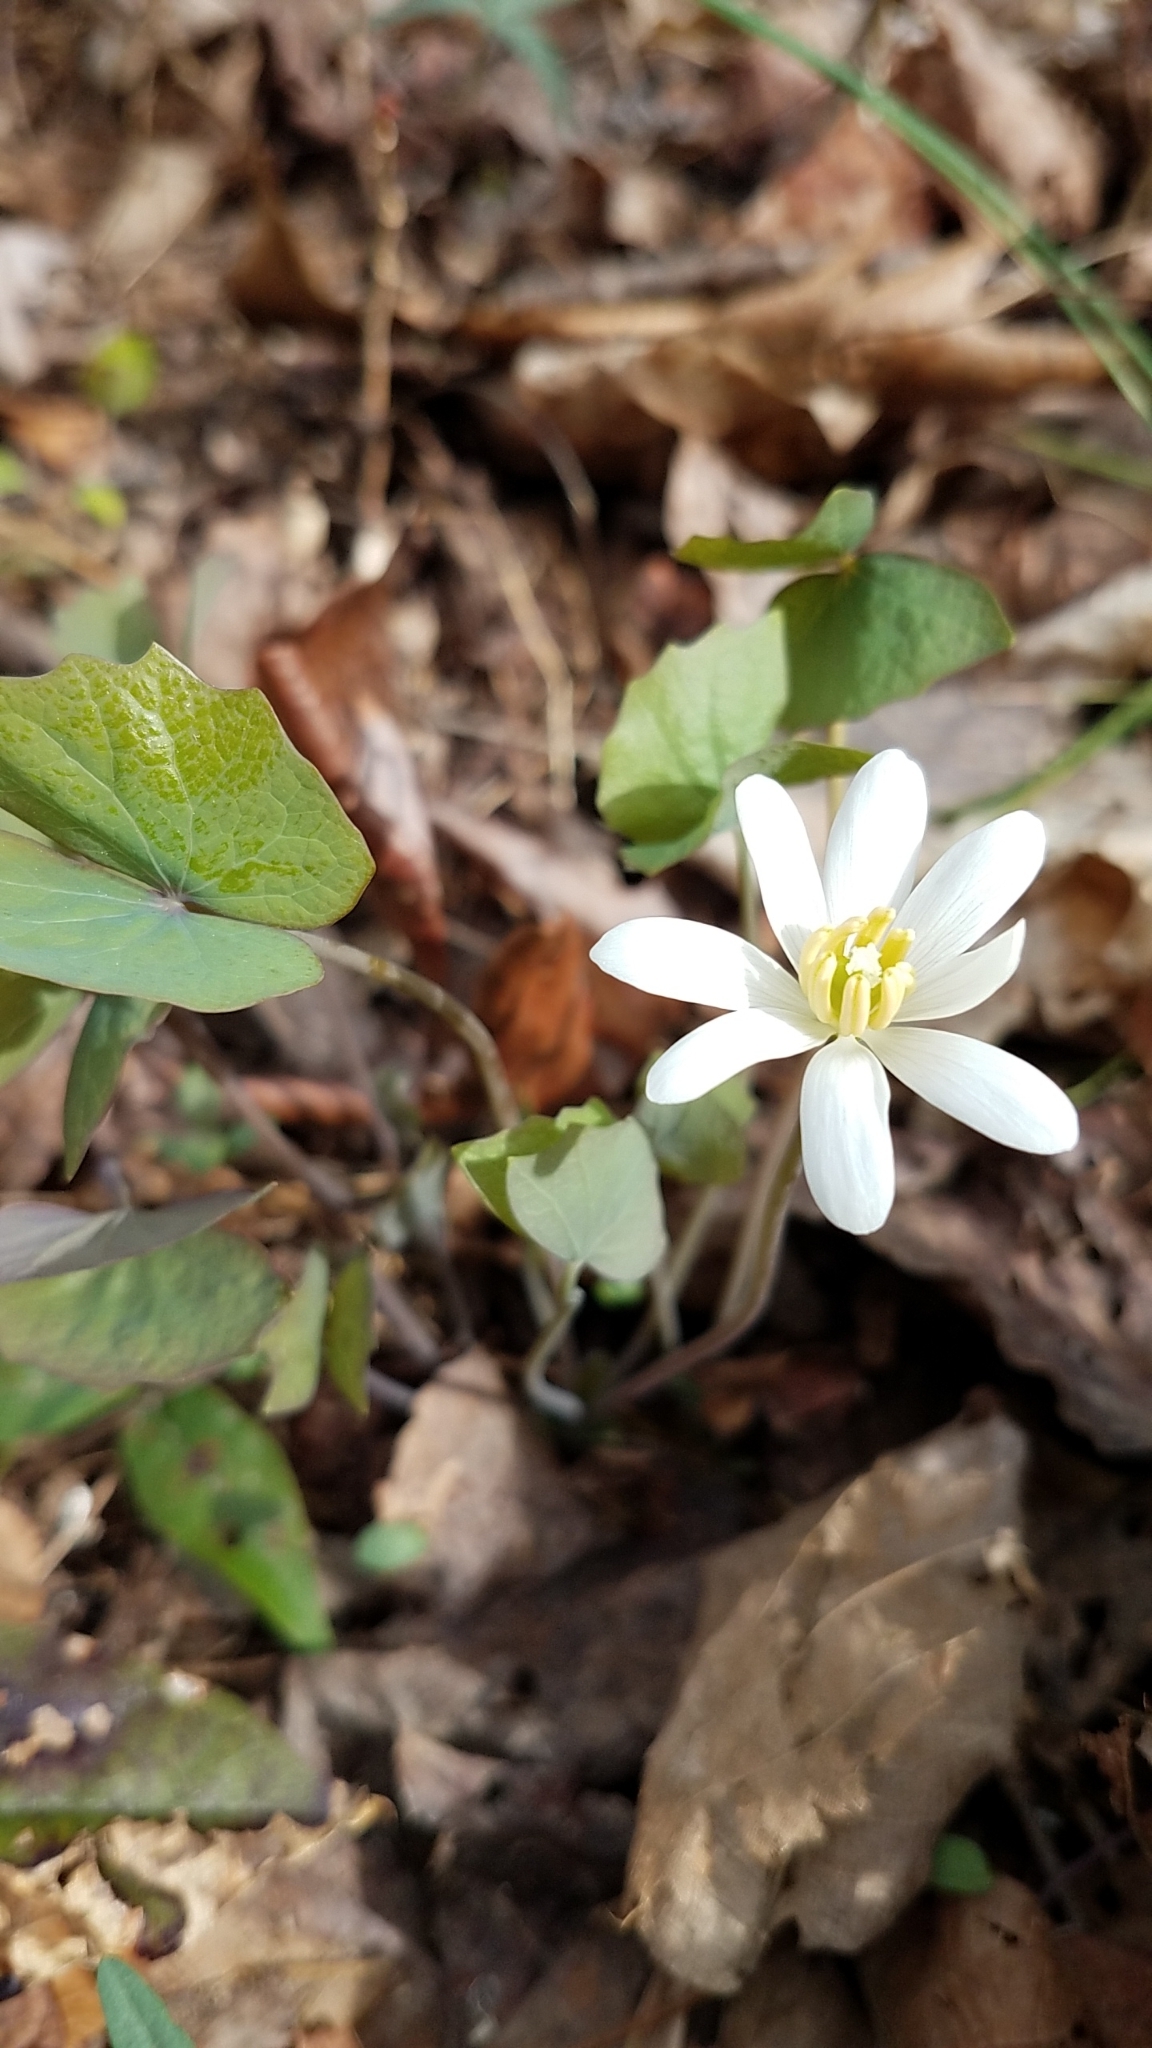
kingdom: Plantae
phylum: Tracheophyta
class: Magnoliopsida
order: Ranunculales
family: Berberidaceae
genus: Jeffersonia
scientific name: Jeffersonia diphylla
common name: Rheumatism-root
